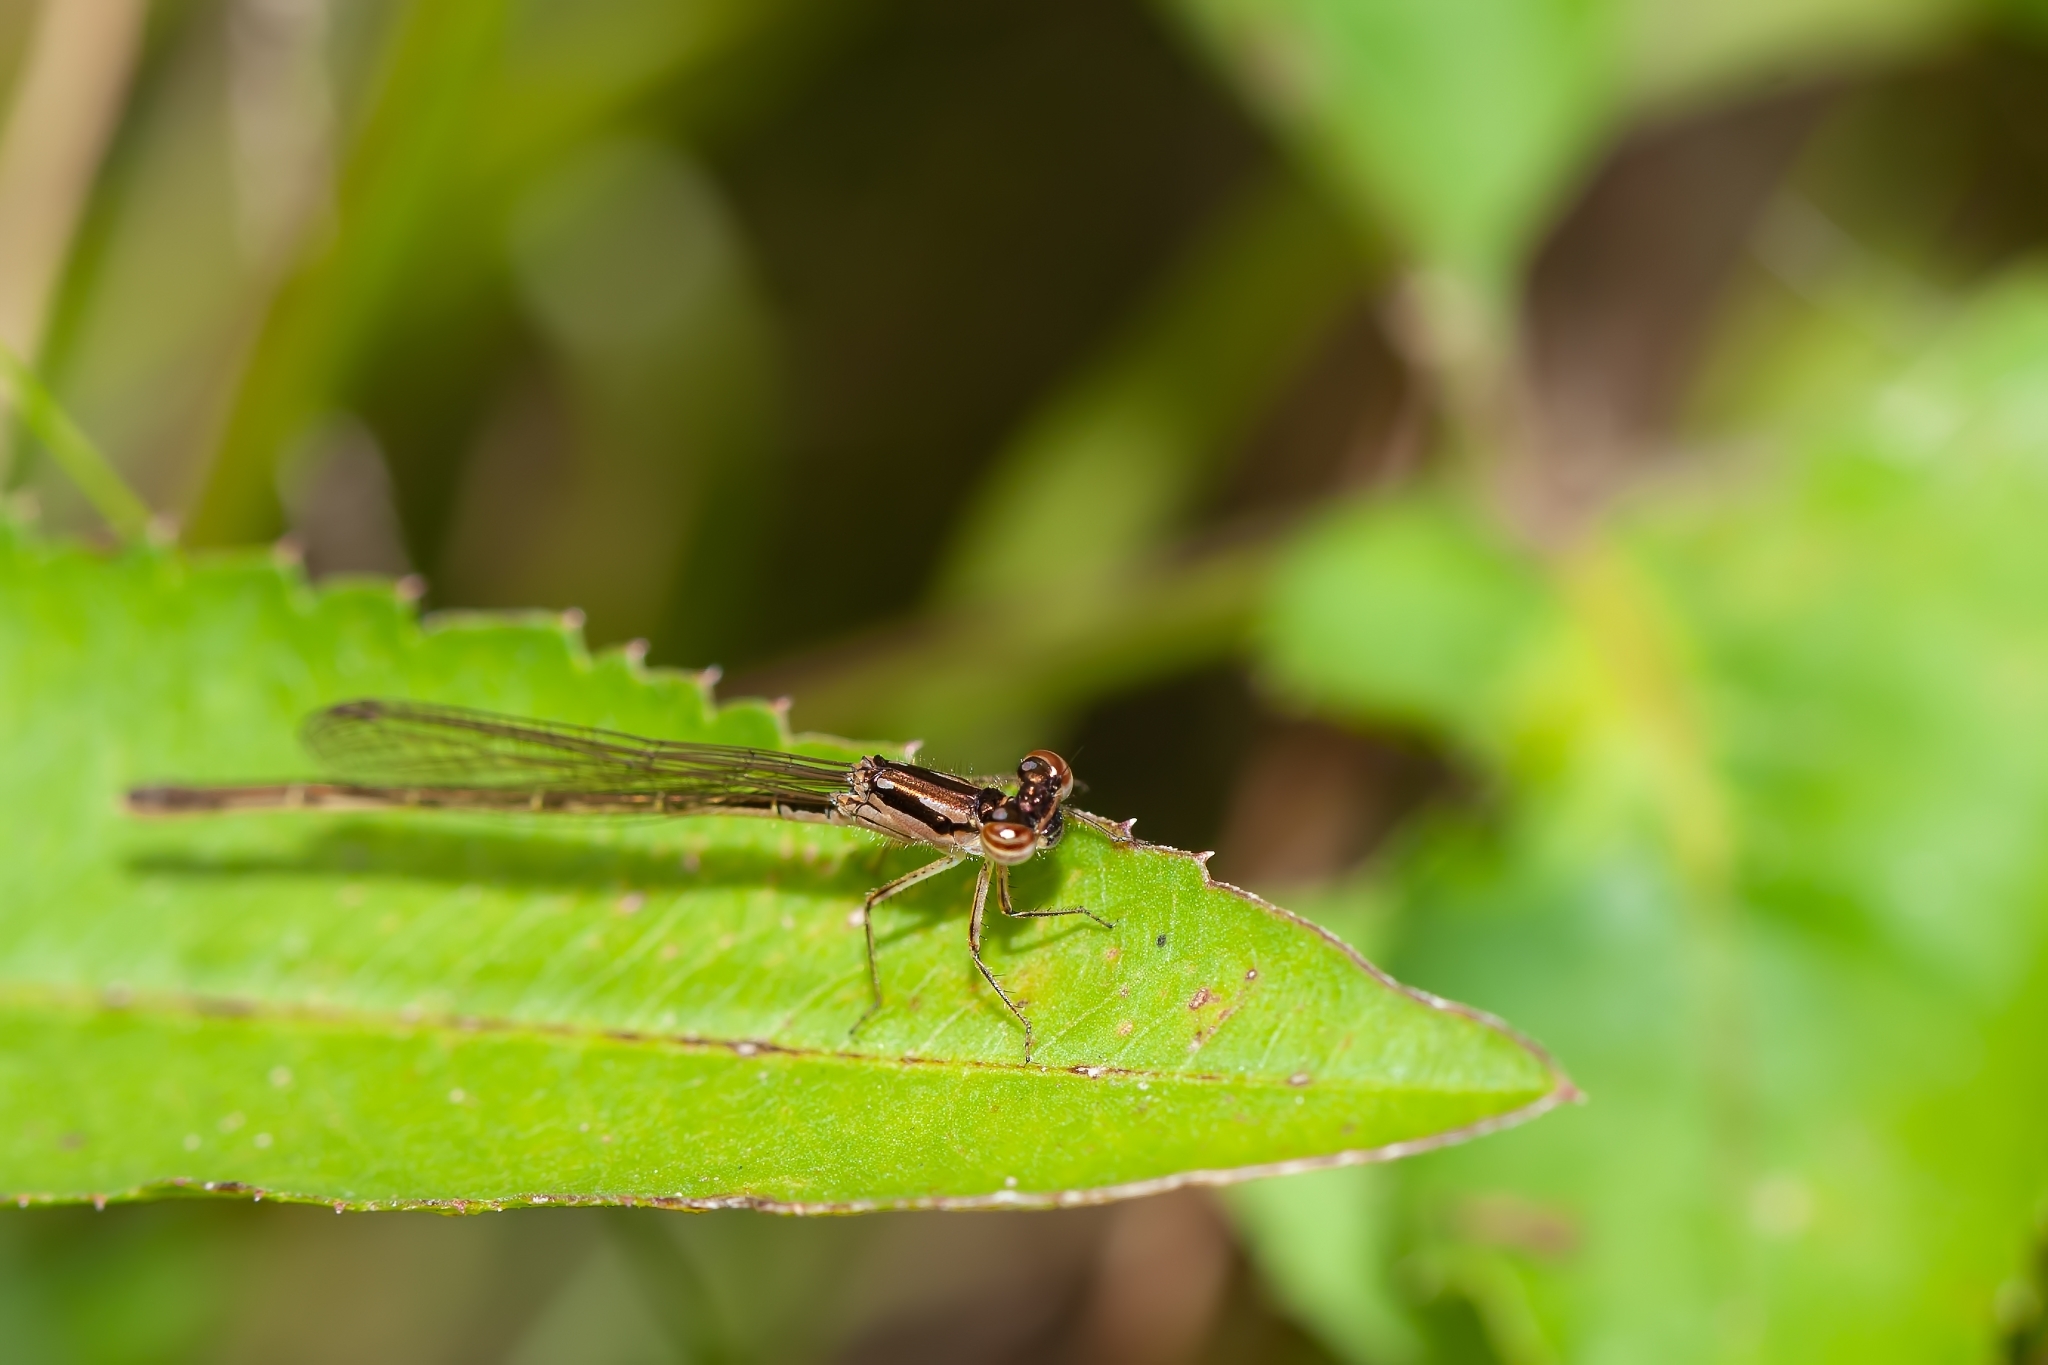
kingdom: Animalia
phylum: Arthropoda
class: Insecta
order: Odonata
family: Coenagrionidae
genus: Ischnura
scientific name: Ischnura posita
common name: Fragile forktail
